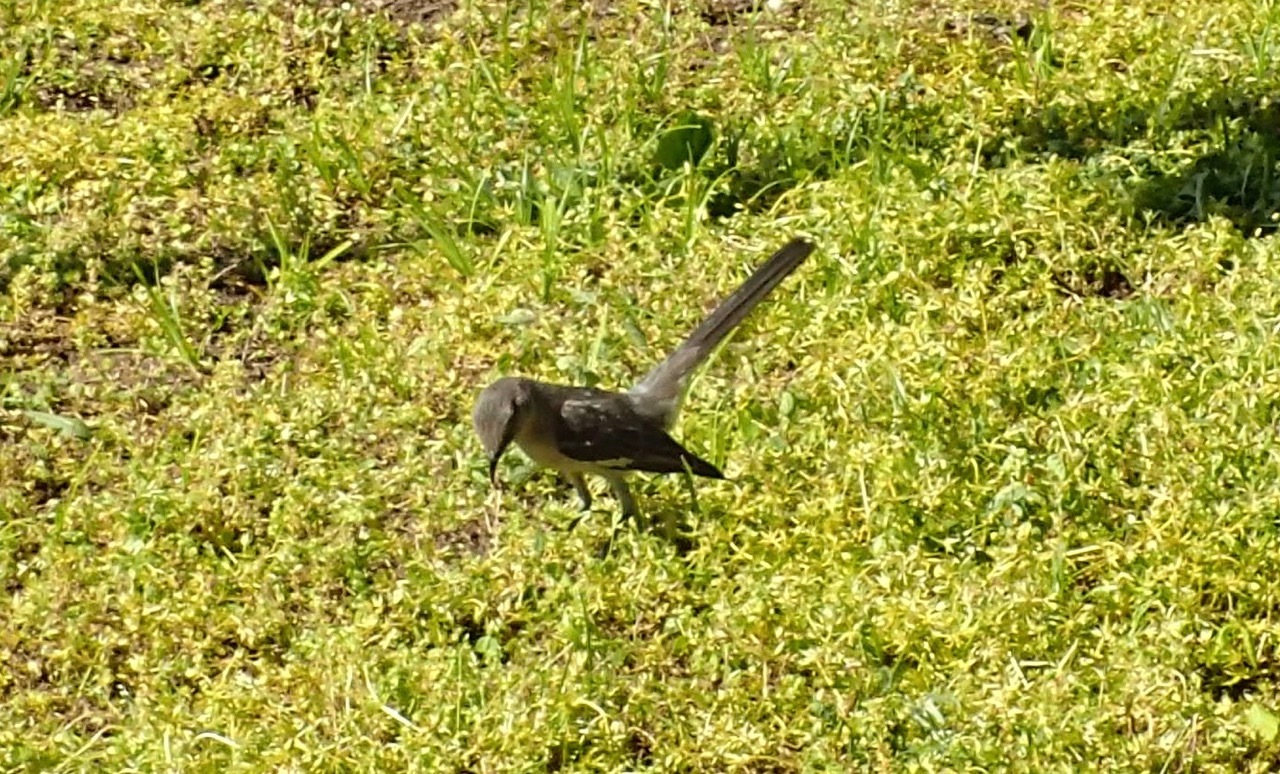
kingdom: Animalia
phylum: Chordata
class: Aves
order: Passeriformes
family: Mimidae
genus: Mimus
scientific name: Mimus polyglottos
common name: Northern mockingbird
